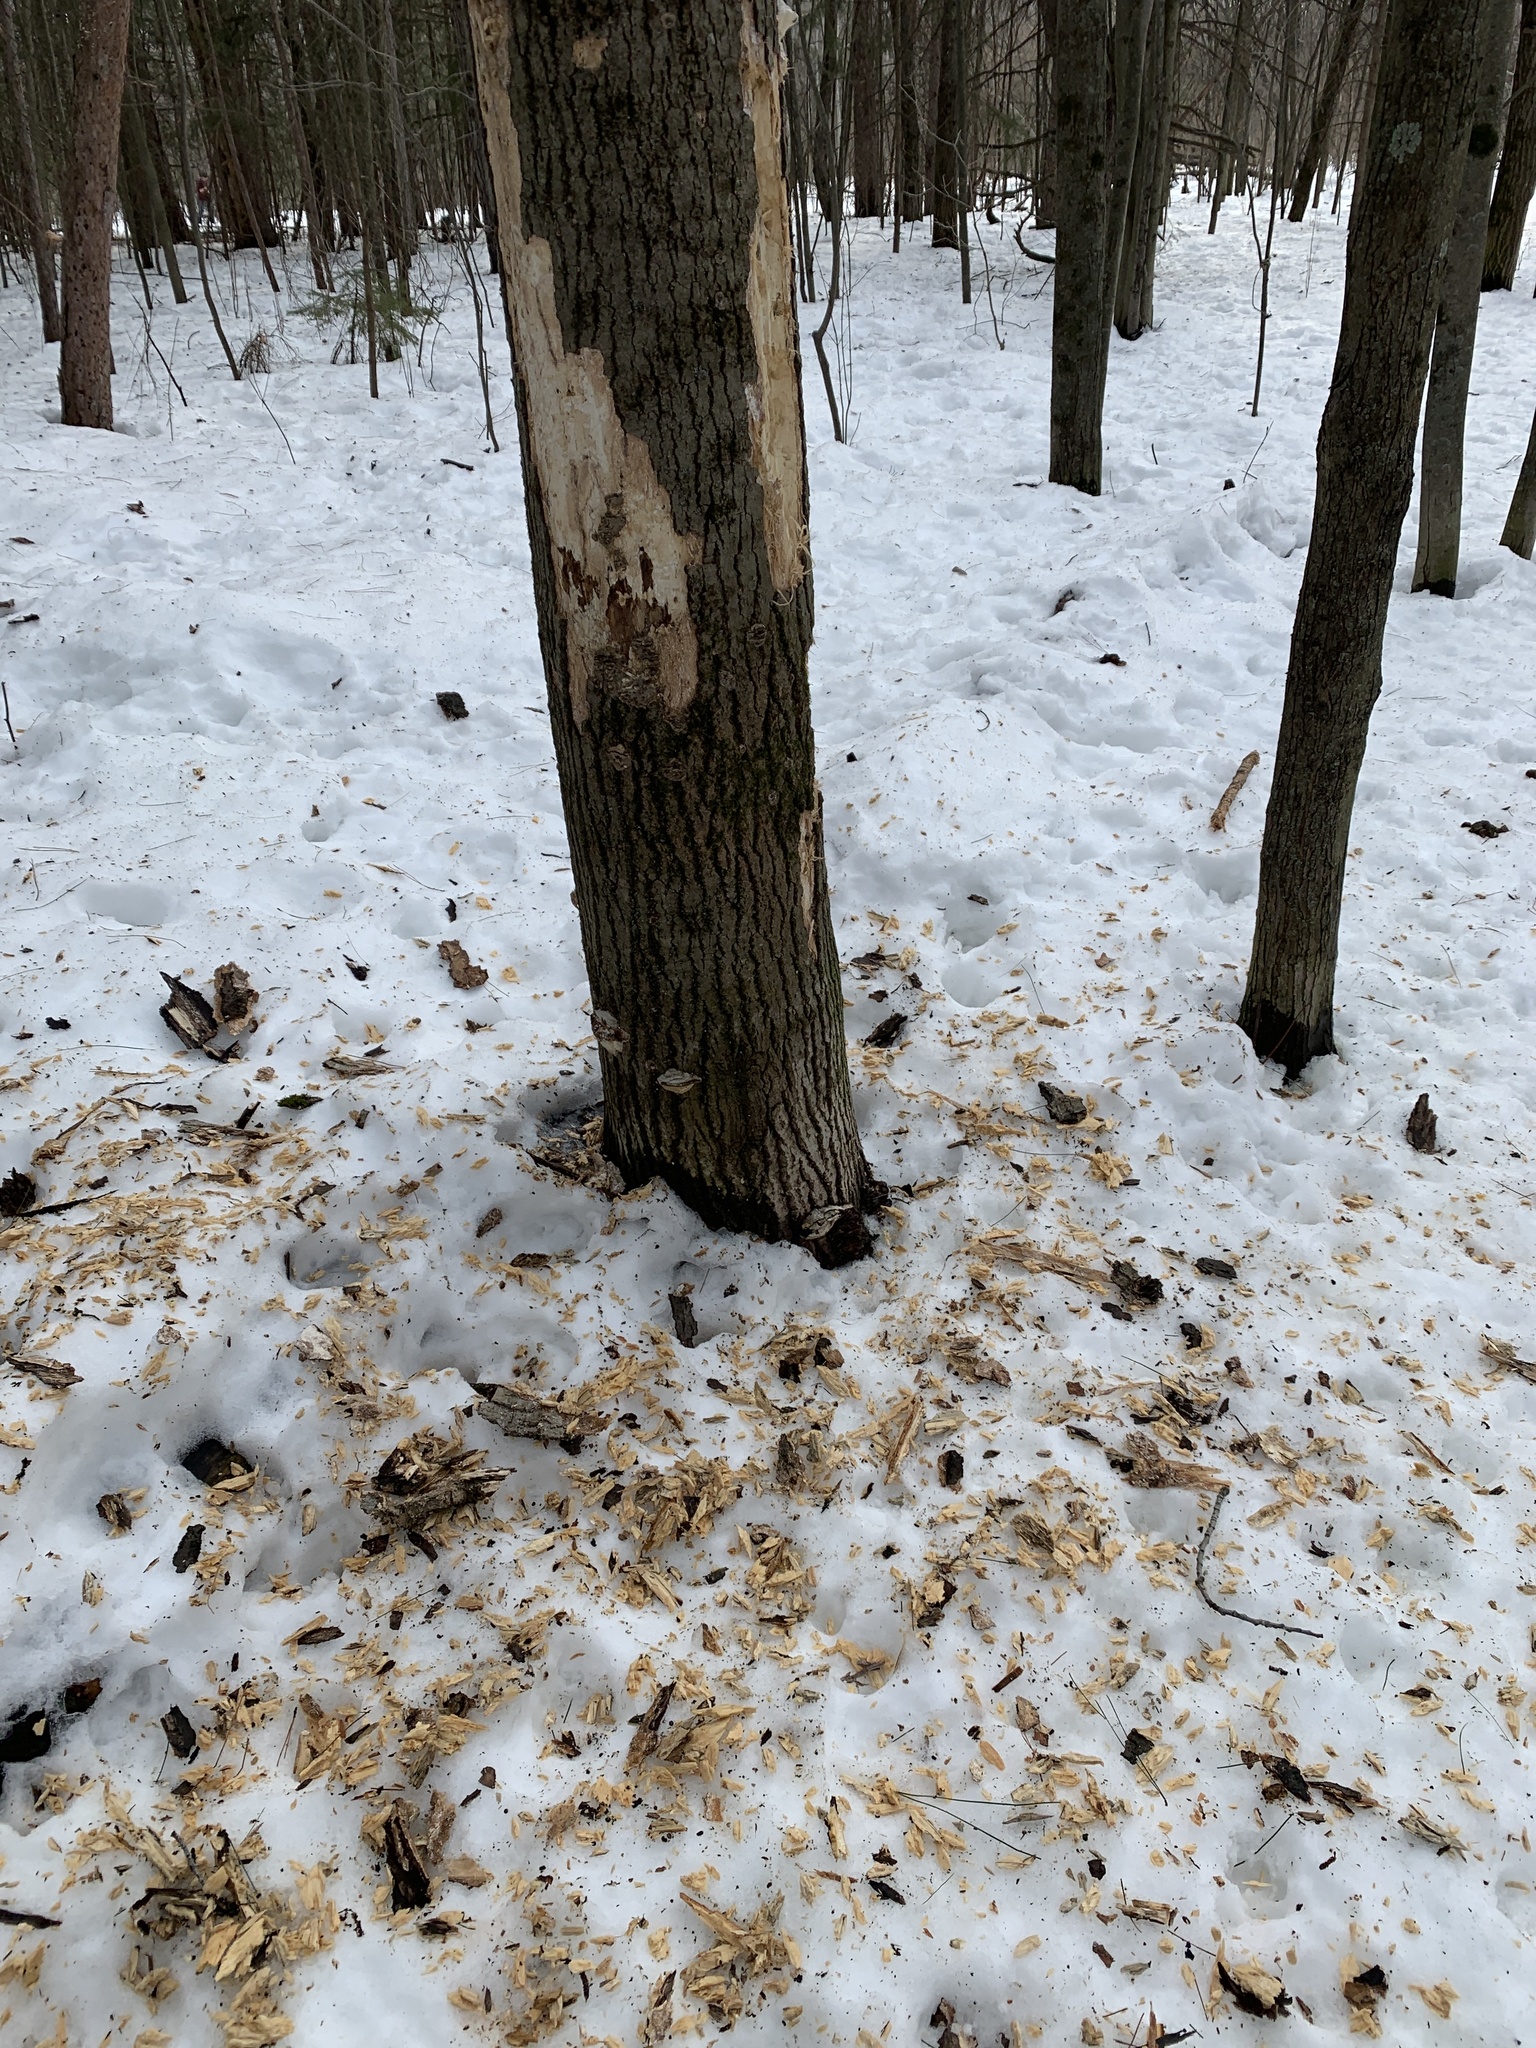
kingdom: Animalia
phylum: Chordata
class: Aves
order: Piciformes
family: Picidae
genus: Dryocopus
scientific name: Dryocopus pileatus
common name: Pileated woodpecker
